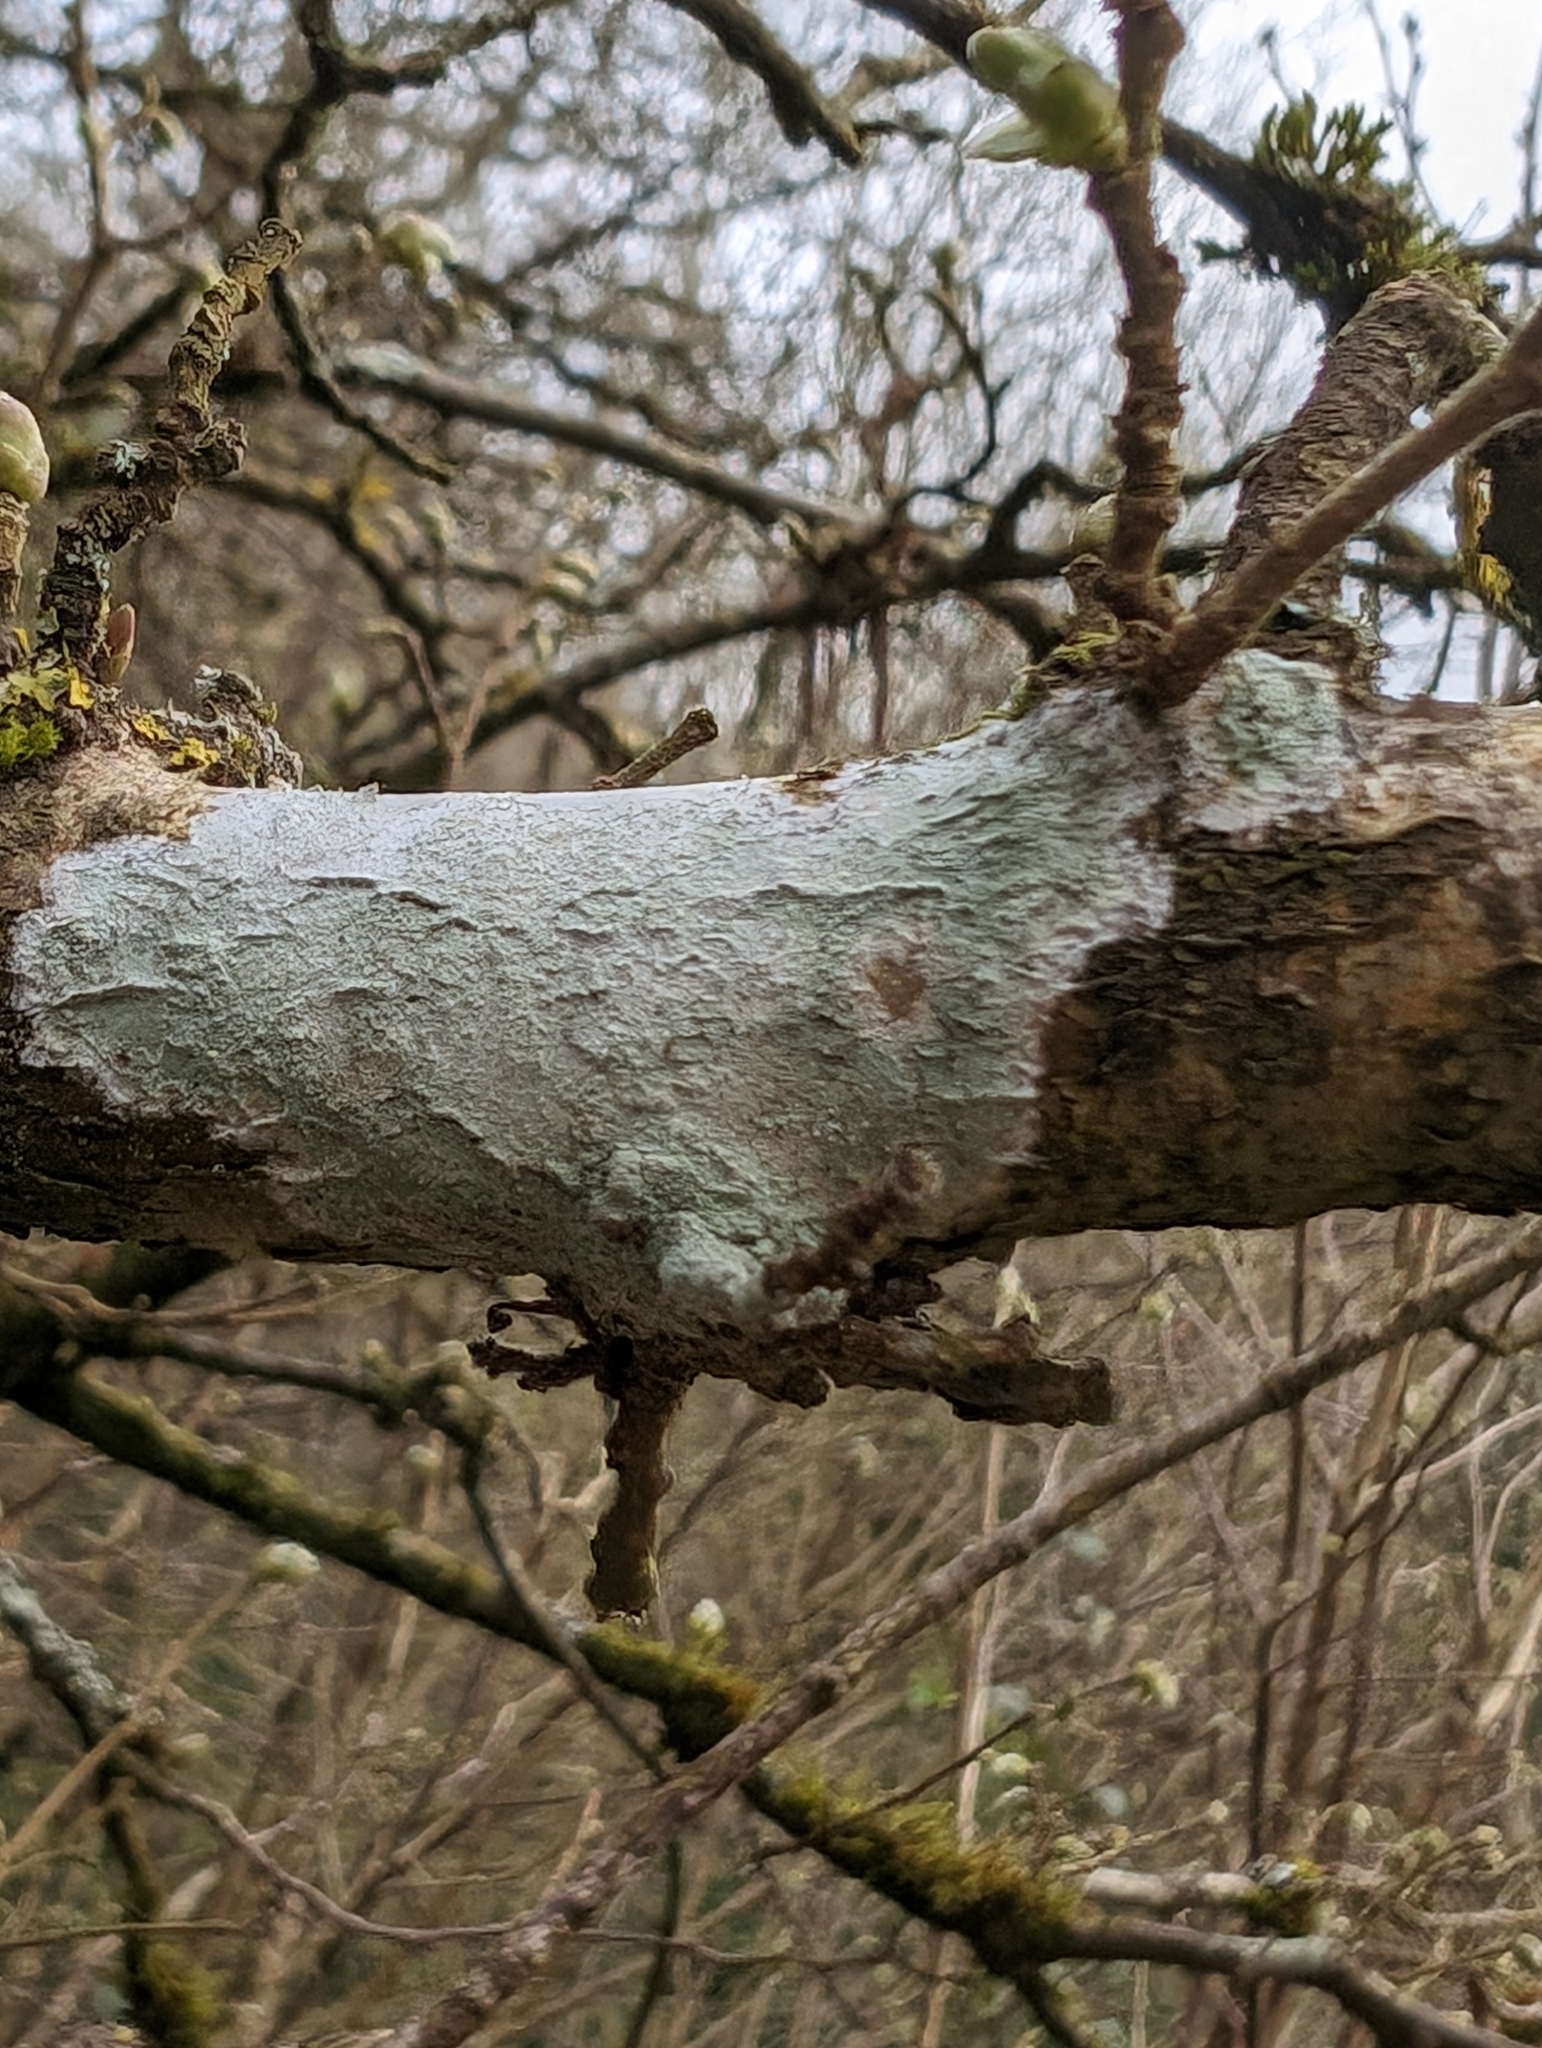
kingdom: Fungi
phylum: Ascomycota
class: Lecanoromycetes
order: Ostropales
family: Phlyctidaceae
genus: Phlyctis
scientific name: Phlyctis argena
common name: Whitewash lichen
